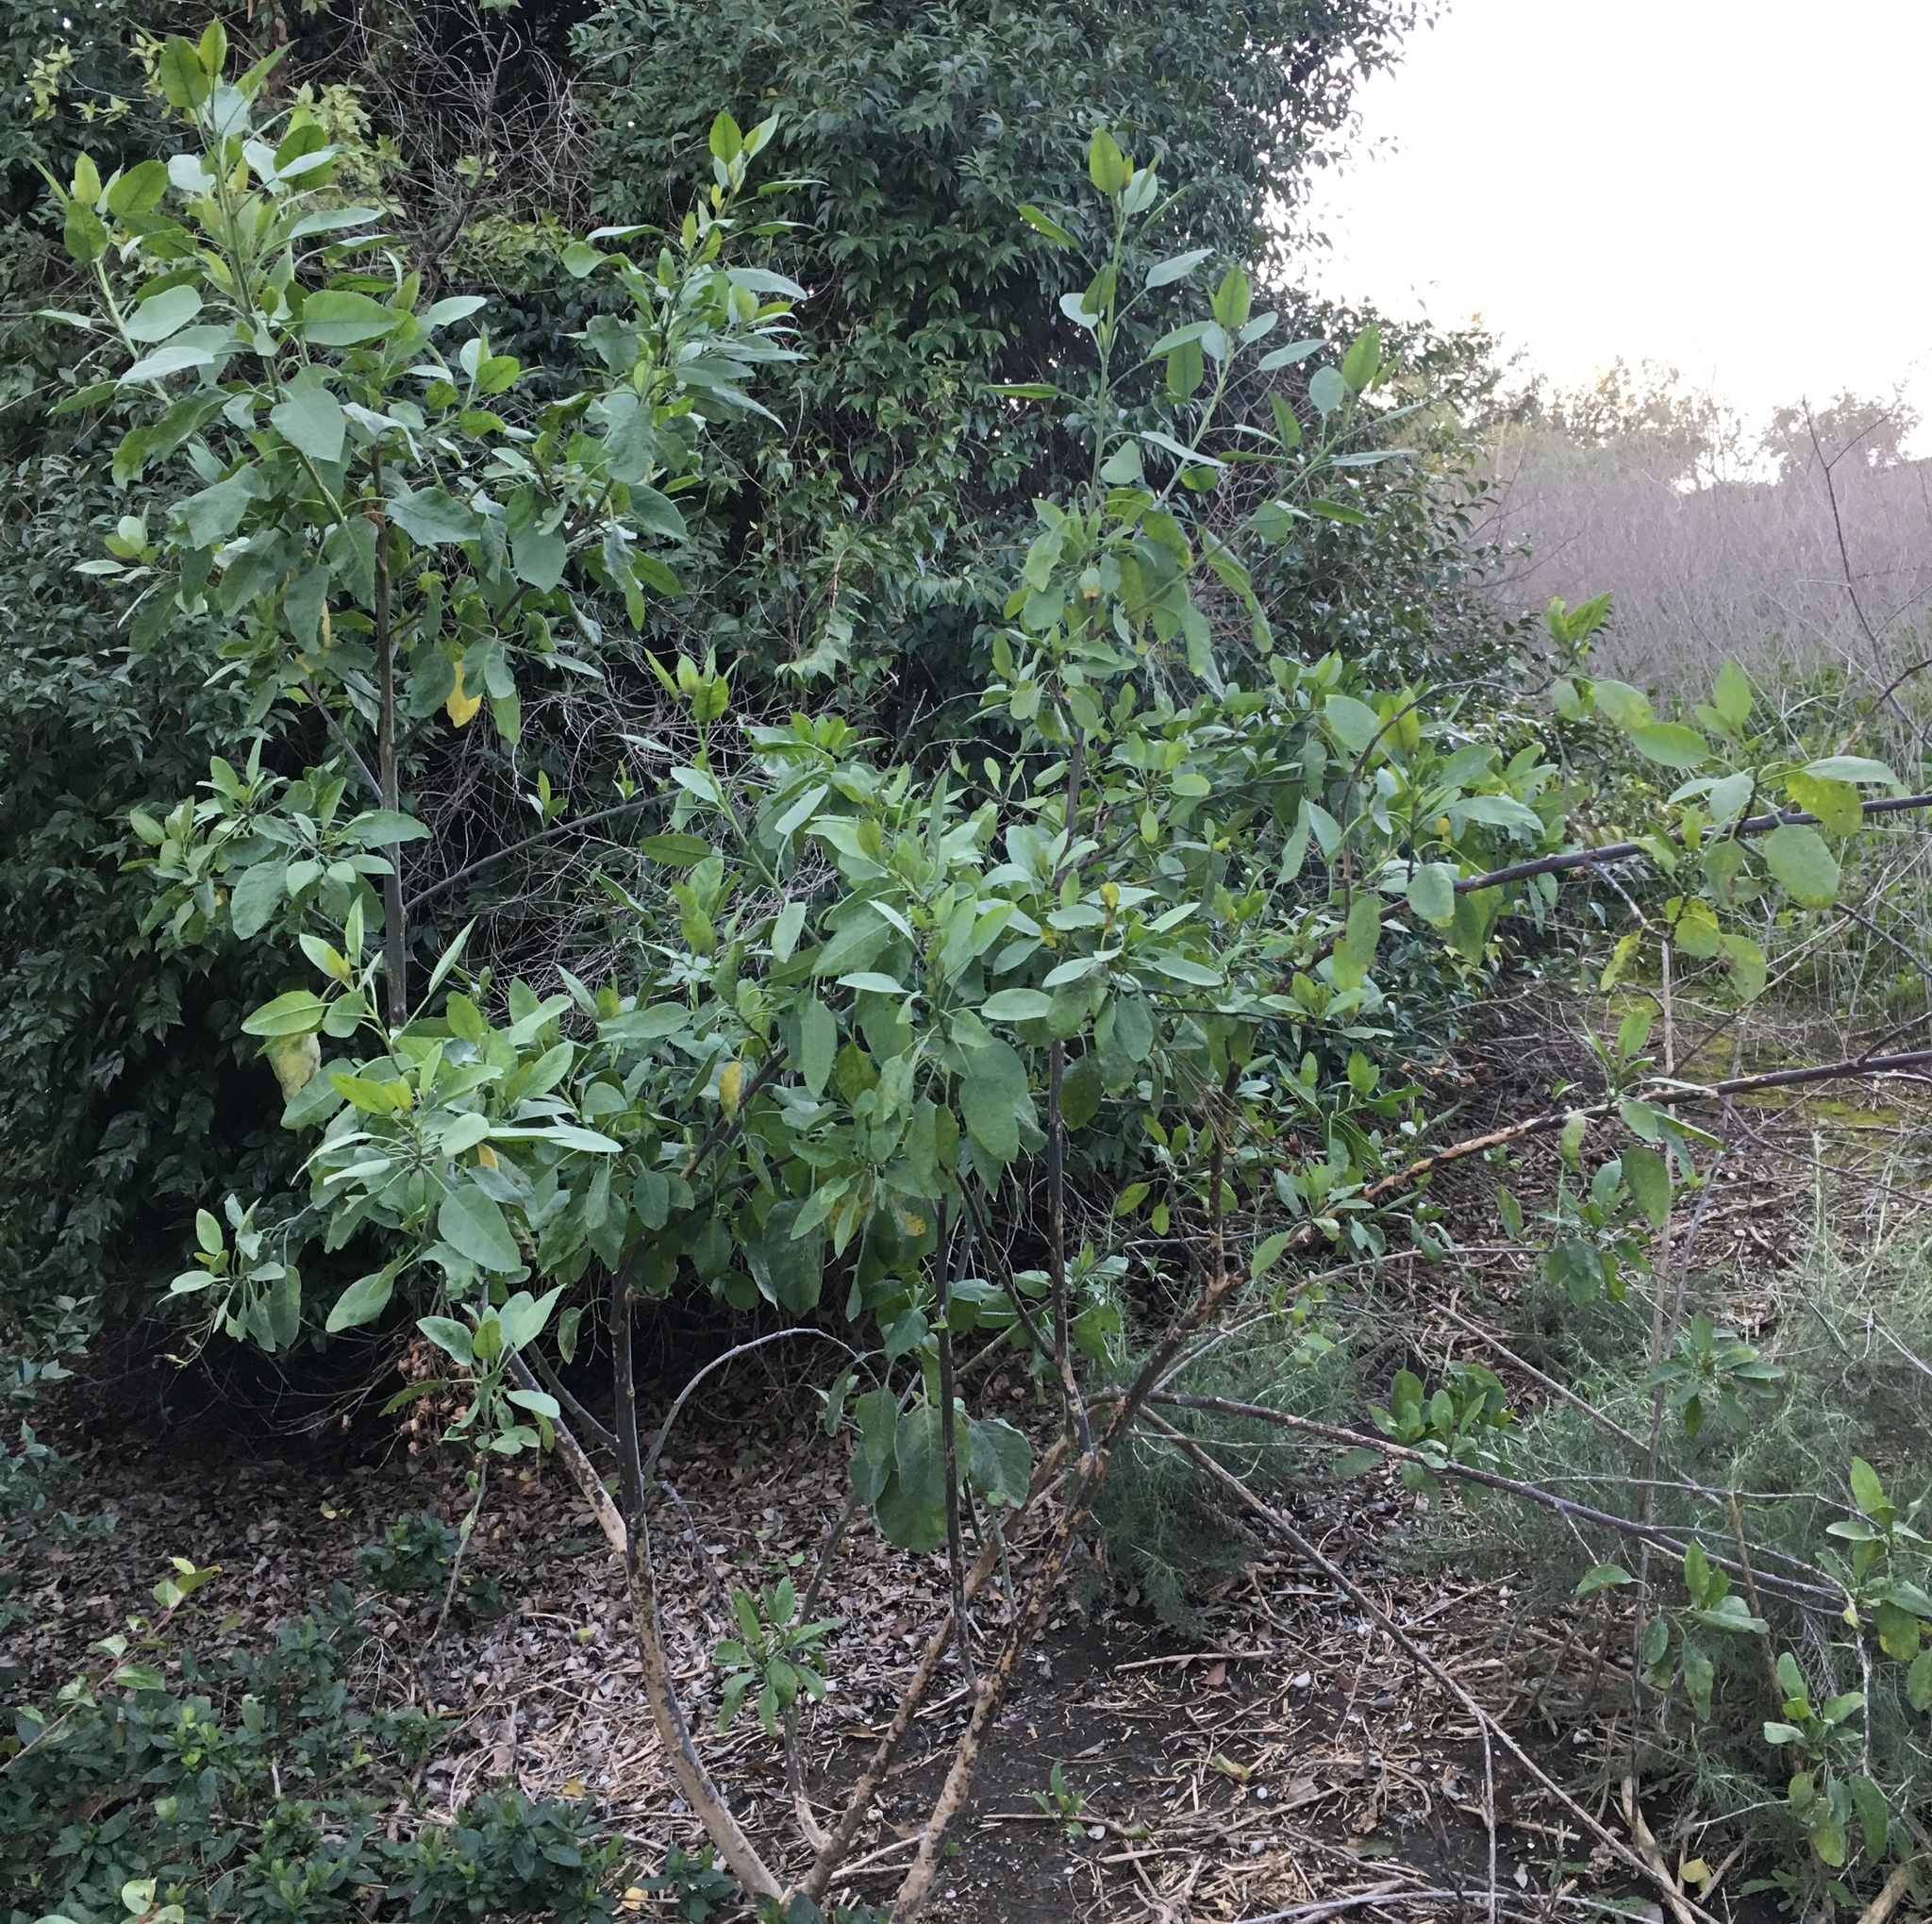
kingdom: Plantae
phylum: Tracheophyta
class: Magnoliopsida
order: Solanales
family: Solanaceae
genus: Nicotiana
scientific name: Nicotiana glauca
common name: Tree tobacco
